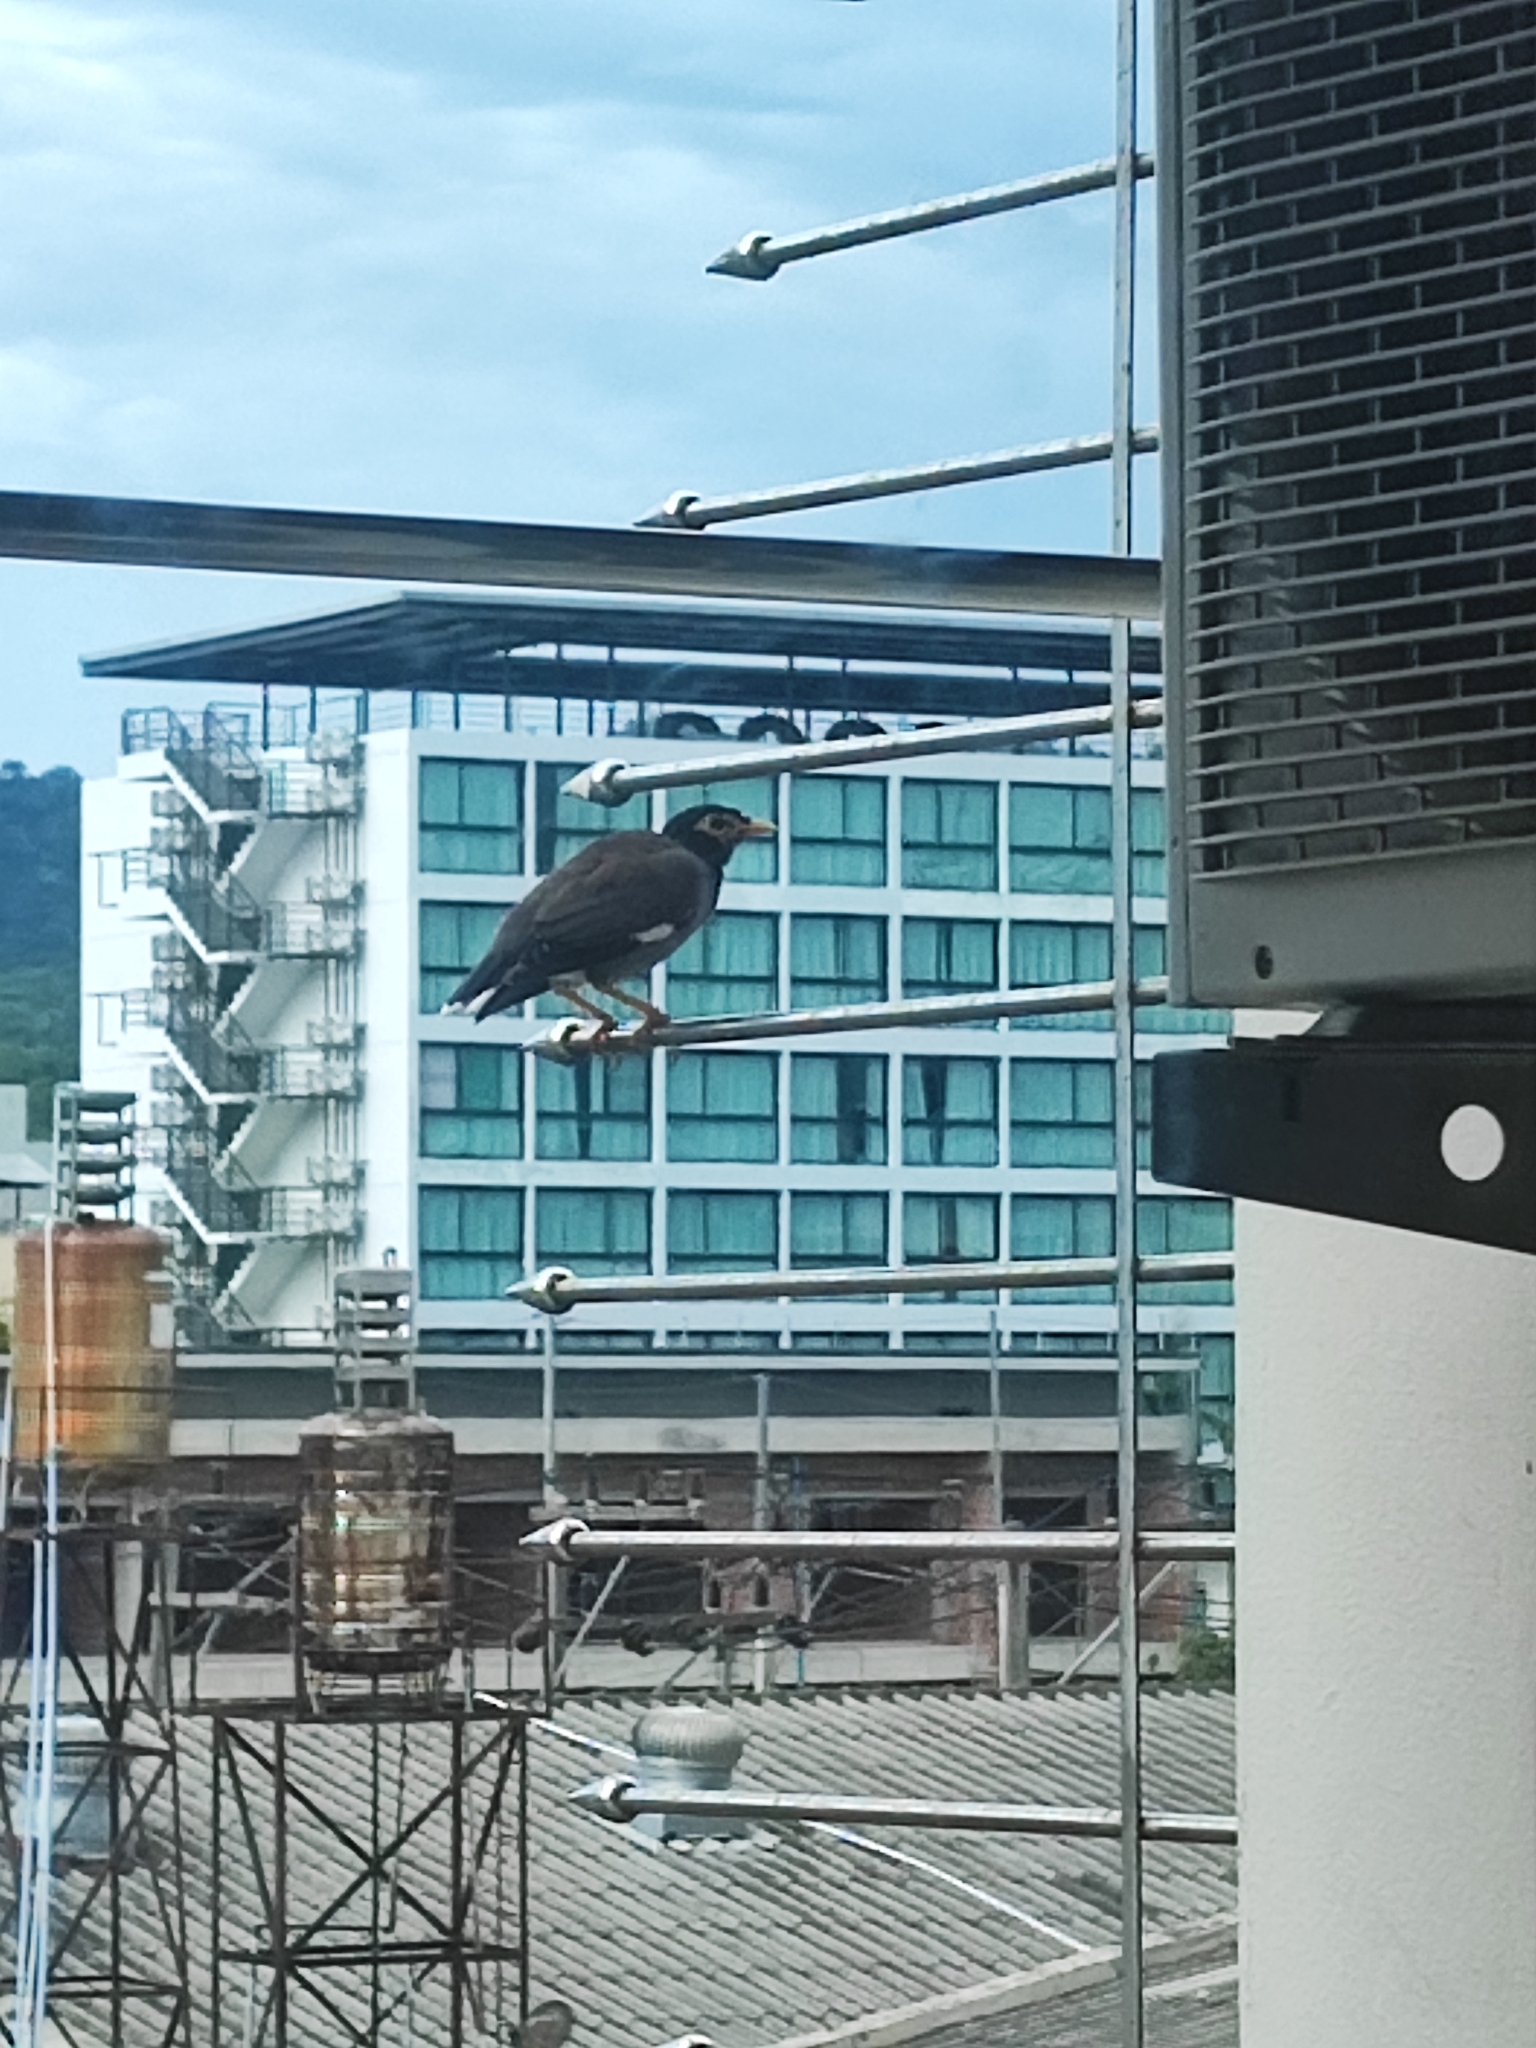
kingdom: Animalia
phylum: Chordata
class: Aves
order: Passeriformes
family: Sturnidae
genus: Acridotheres
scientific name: Acridotheres tristis
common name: Common myna
